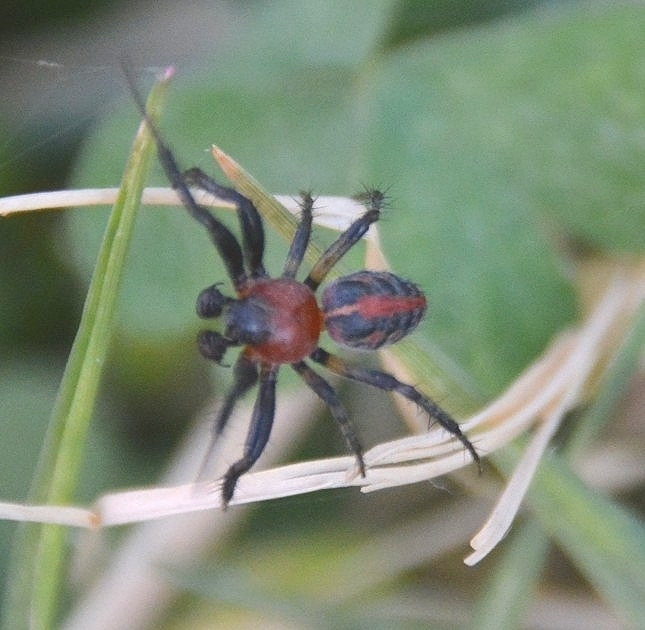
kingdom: Animalia
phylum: Arthropoda
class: Arachnida
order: Araneae
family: Araneidae
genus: Alpaida
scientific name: Alpaida versicolor
